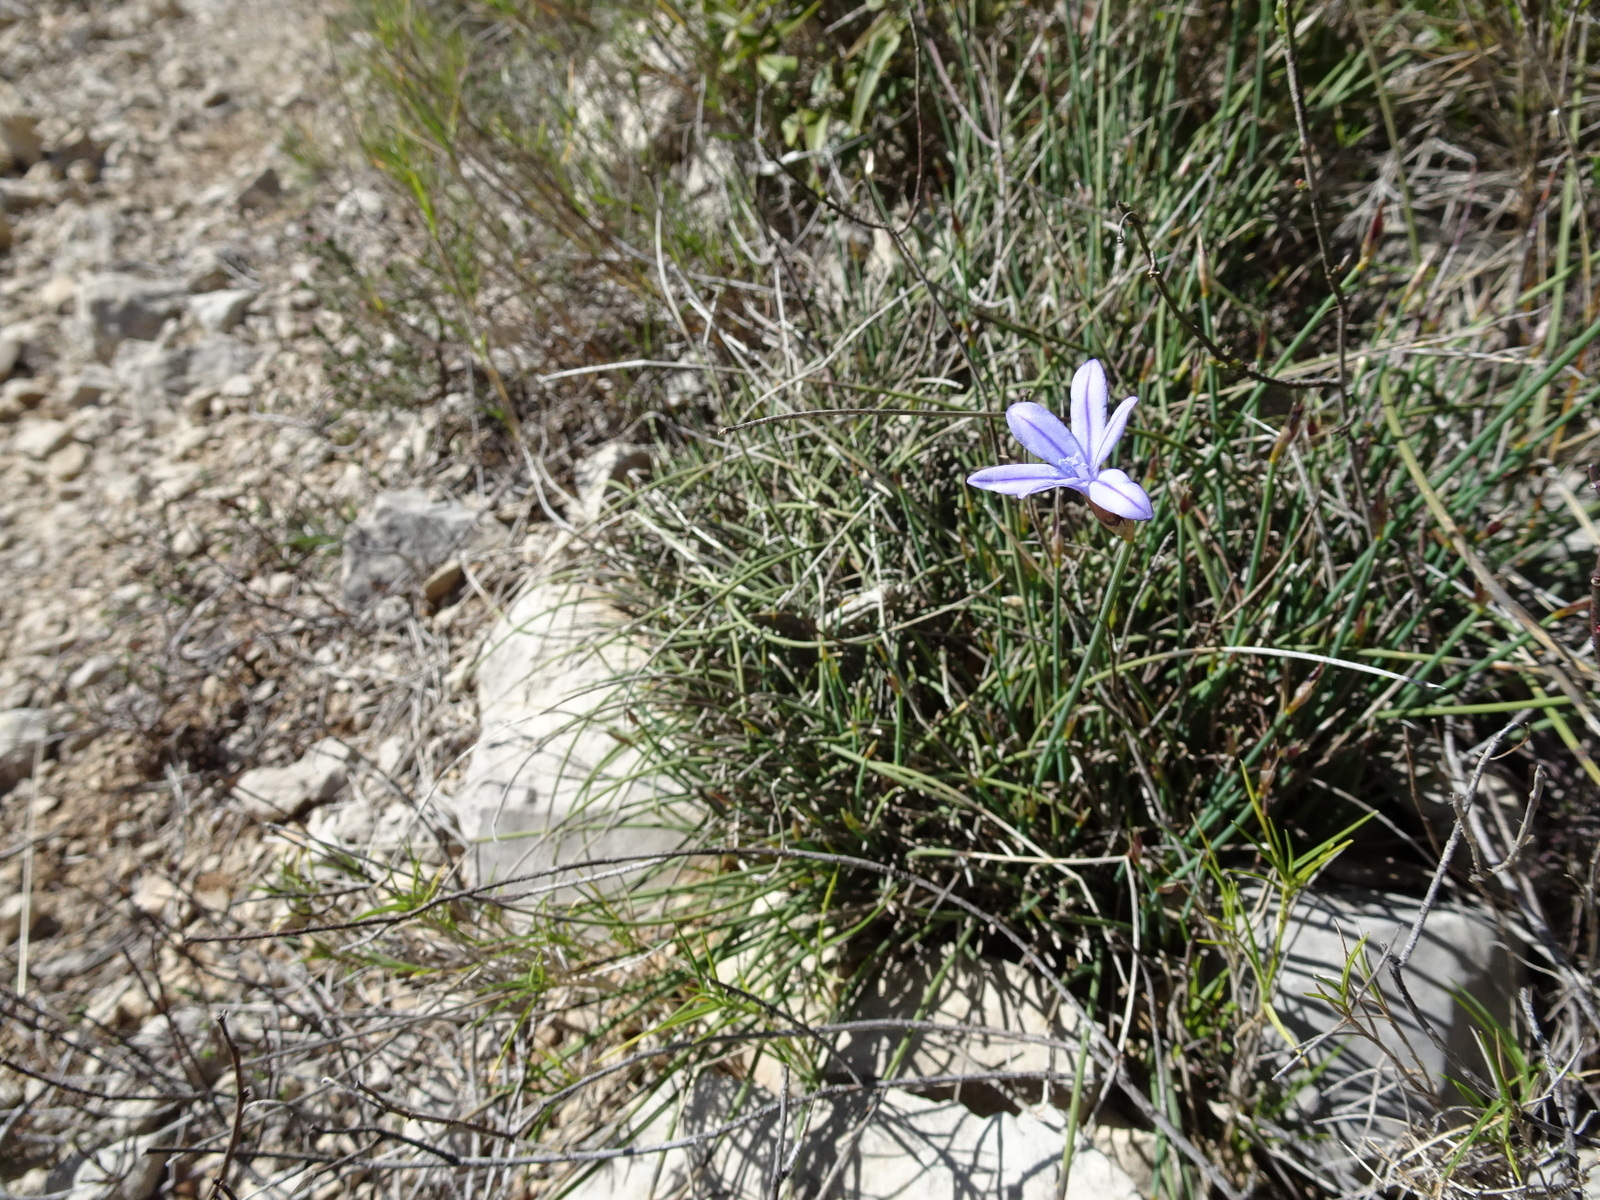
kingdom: Plantae
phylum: Tracheophyta
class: Liliopsida
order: Asparagales
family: Asparagaceae
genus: Aphyllanthes
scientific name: Aphyllanthes monspeliensis
